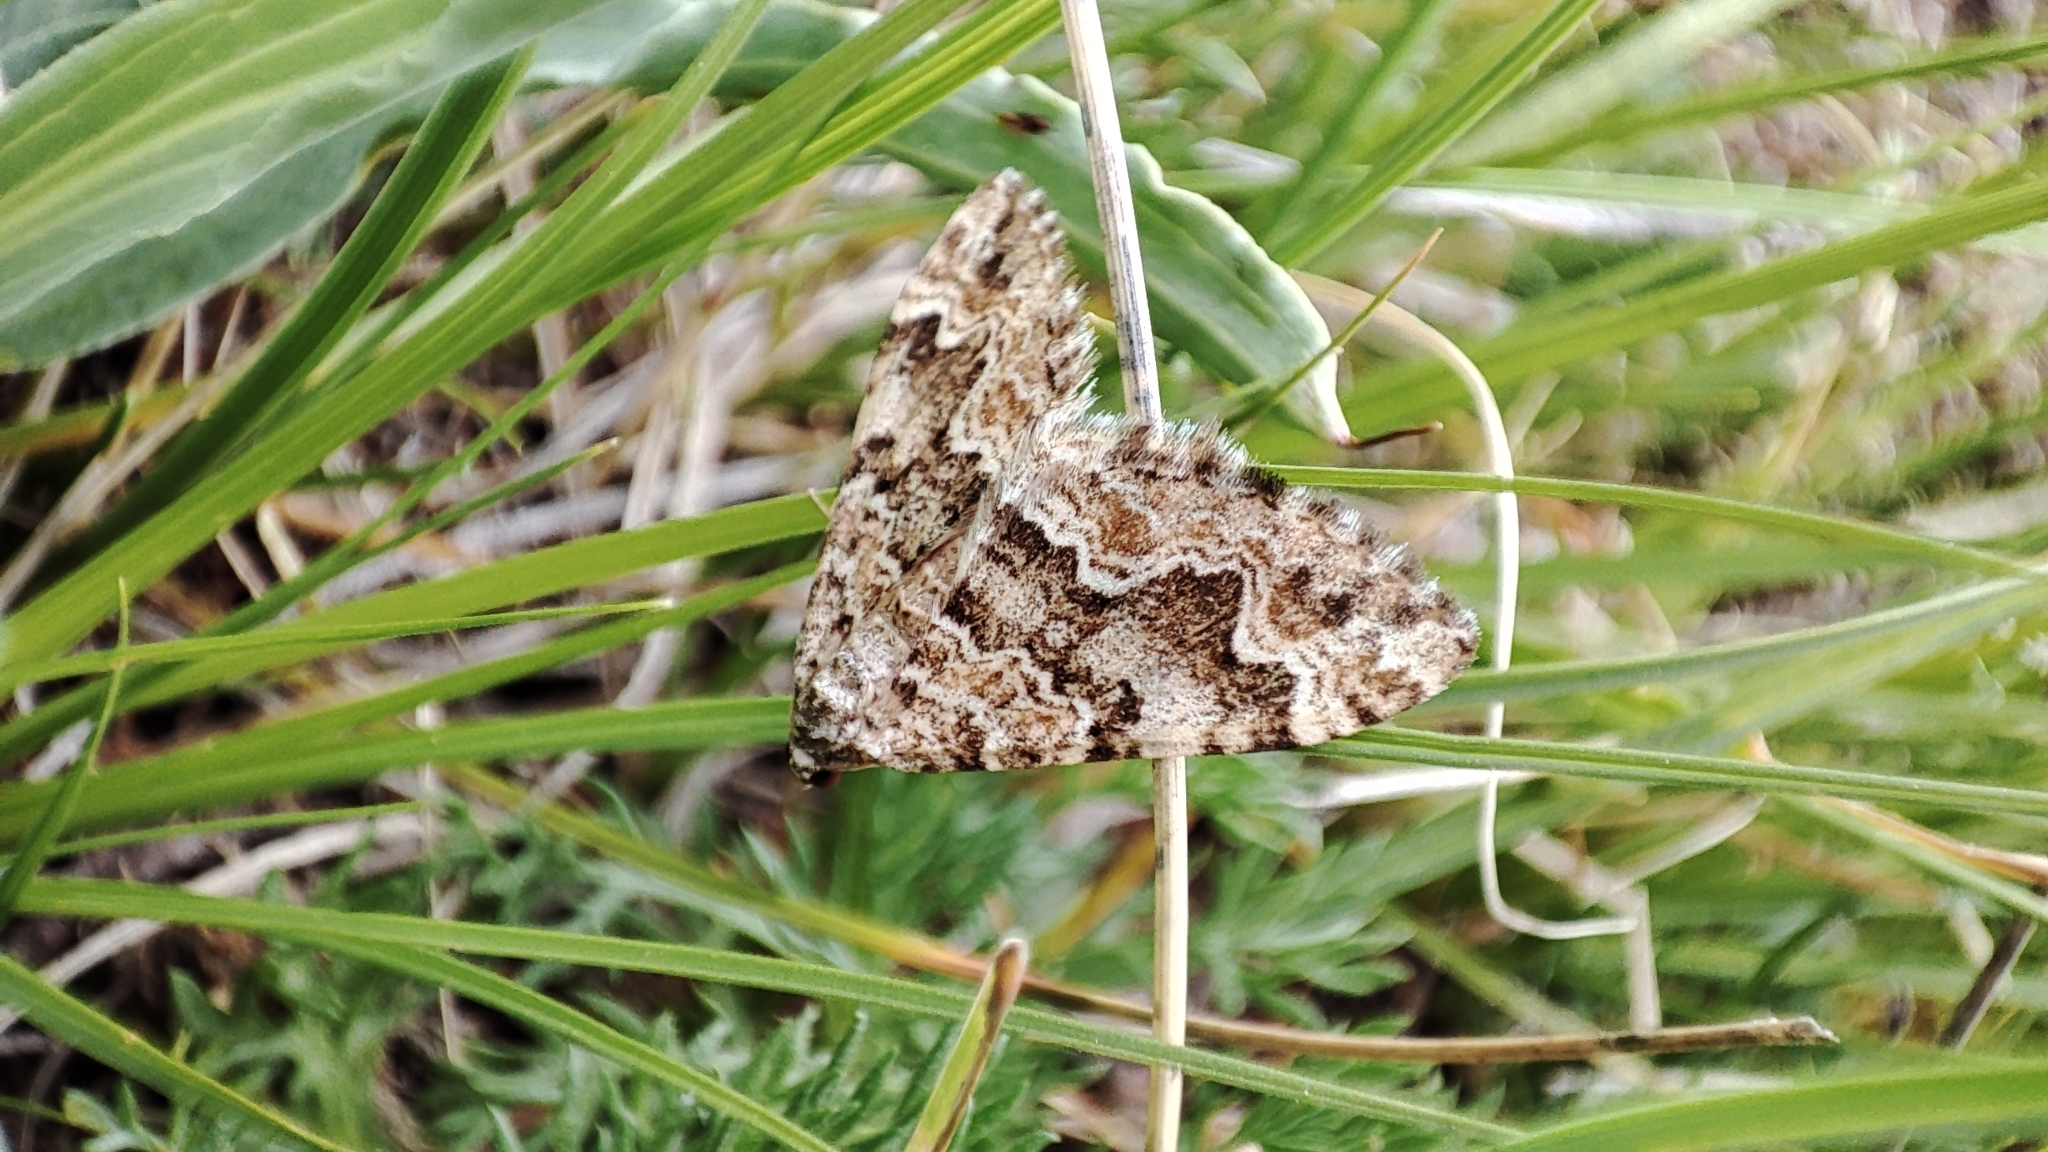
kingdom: Animalia
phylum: Arthropoda
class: Insecta
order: Lepidoptera
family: Geometridae
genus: Juxtephria
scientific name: Juxtephria consentaria
